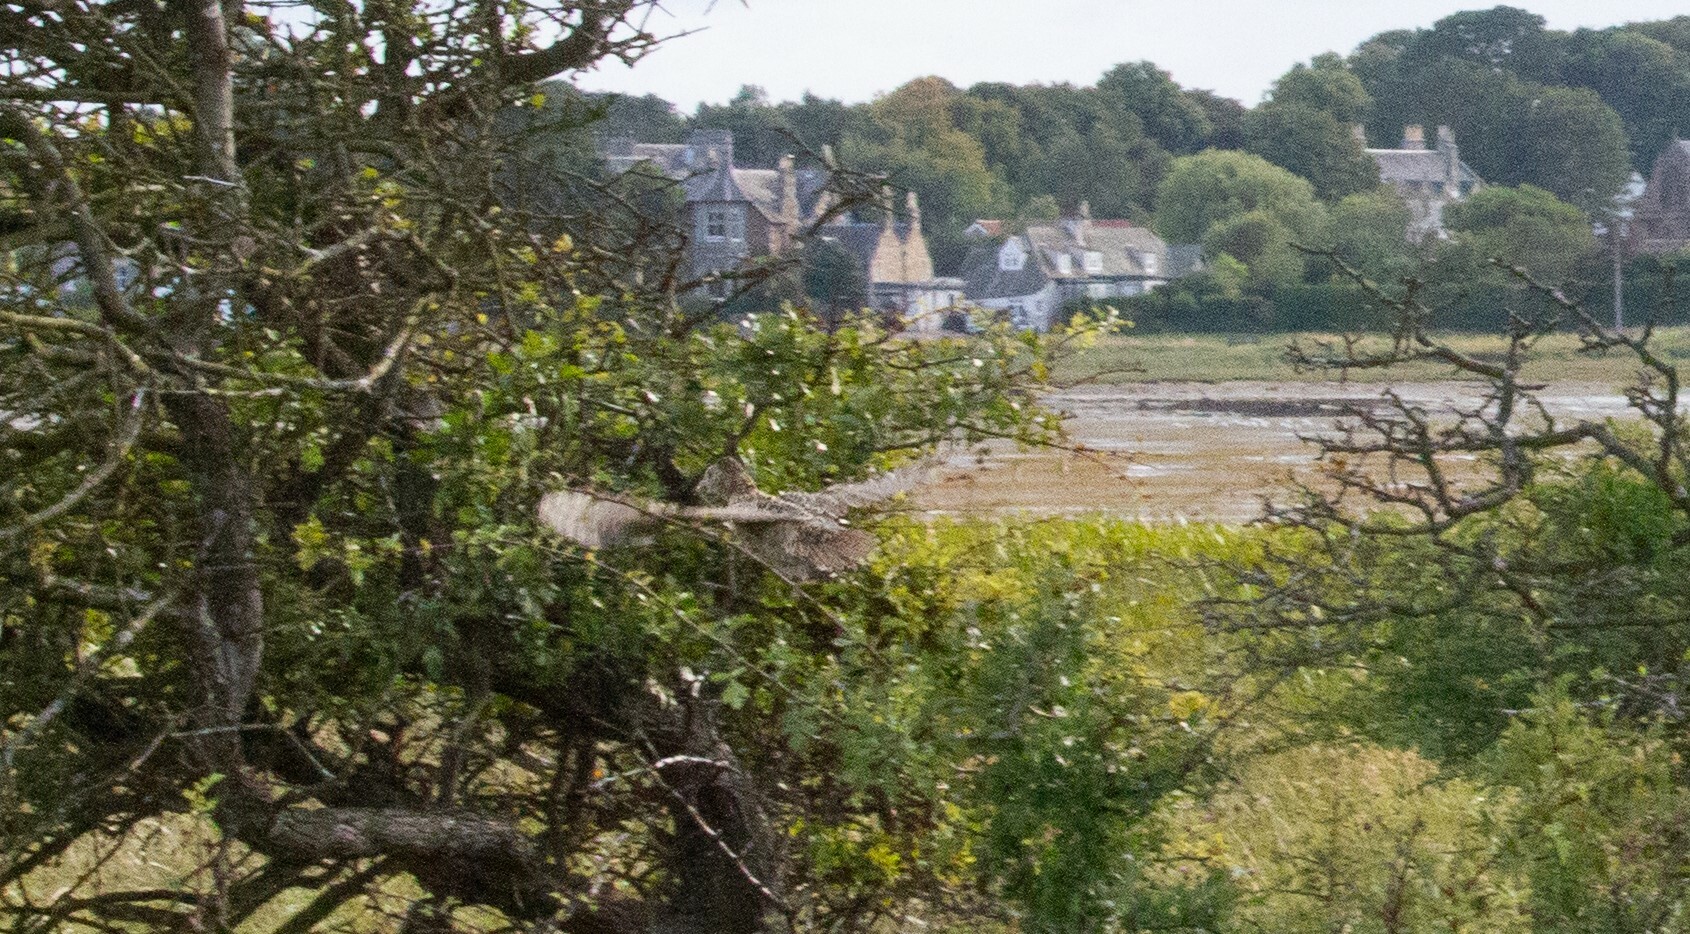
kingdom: Animalia
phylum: Chordata
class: Aves
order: Galliformes
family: Phasianidae
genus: Phasianus
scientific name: Phasianus colchicus
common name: Common pheasant
